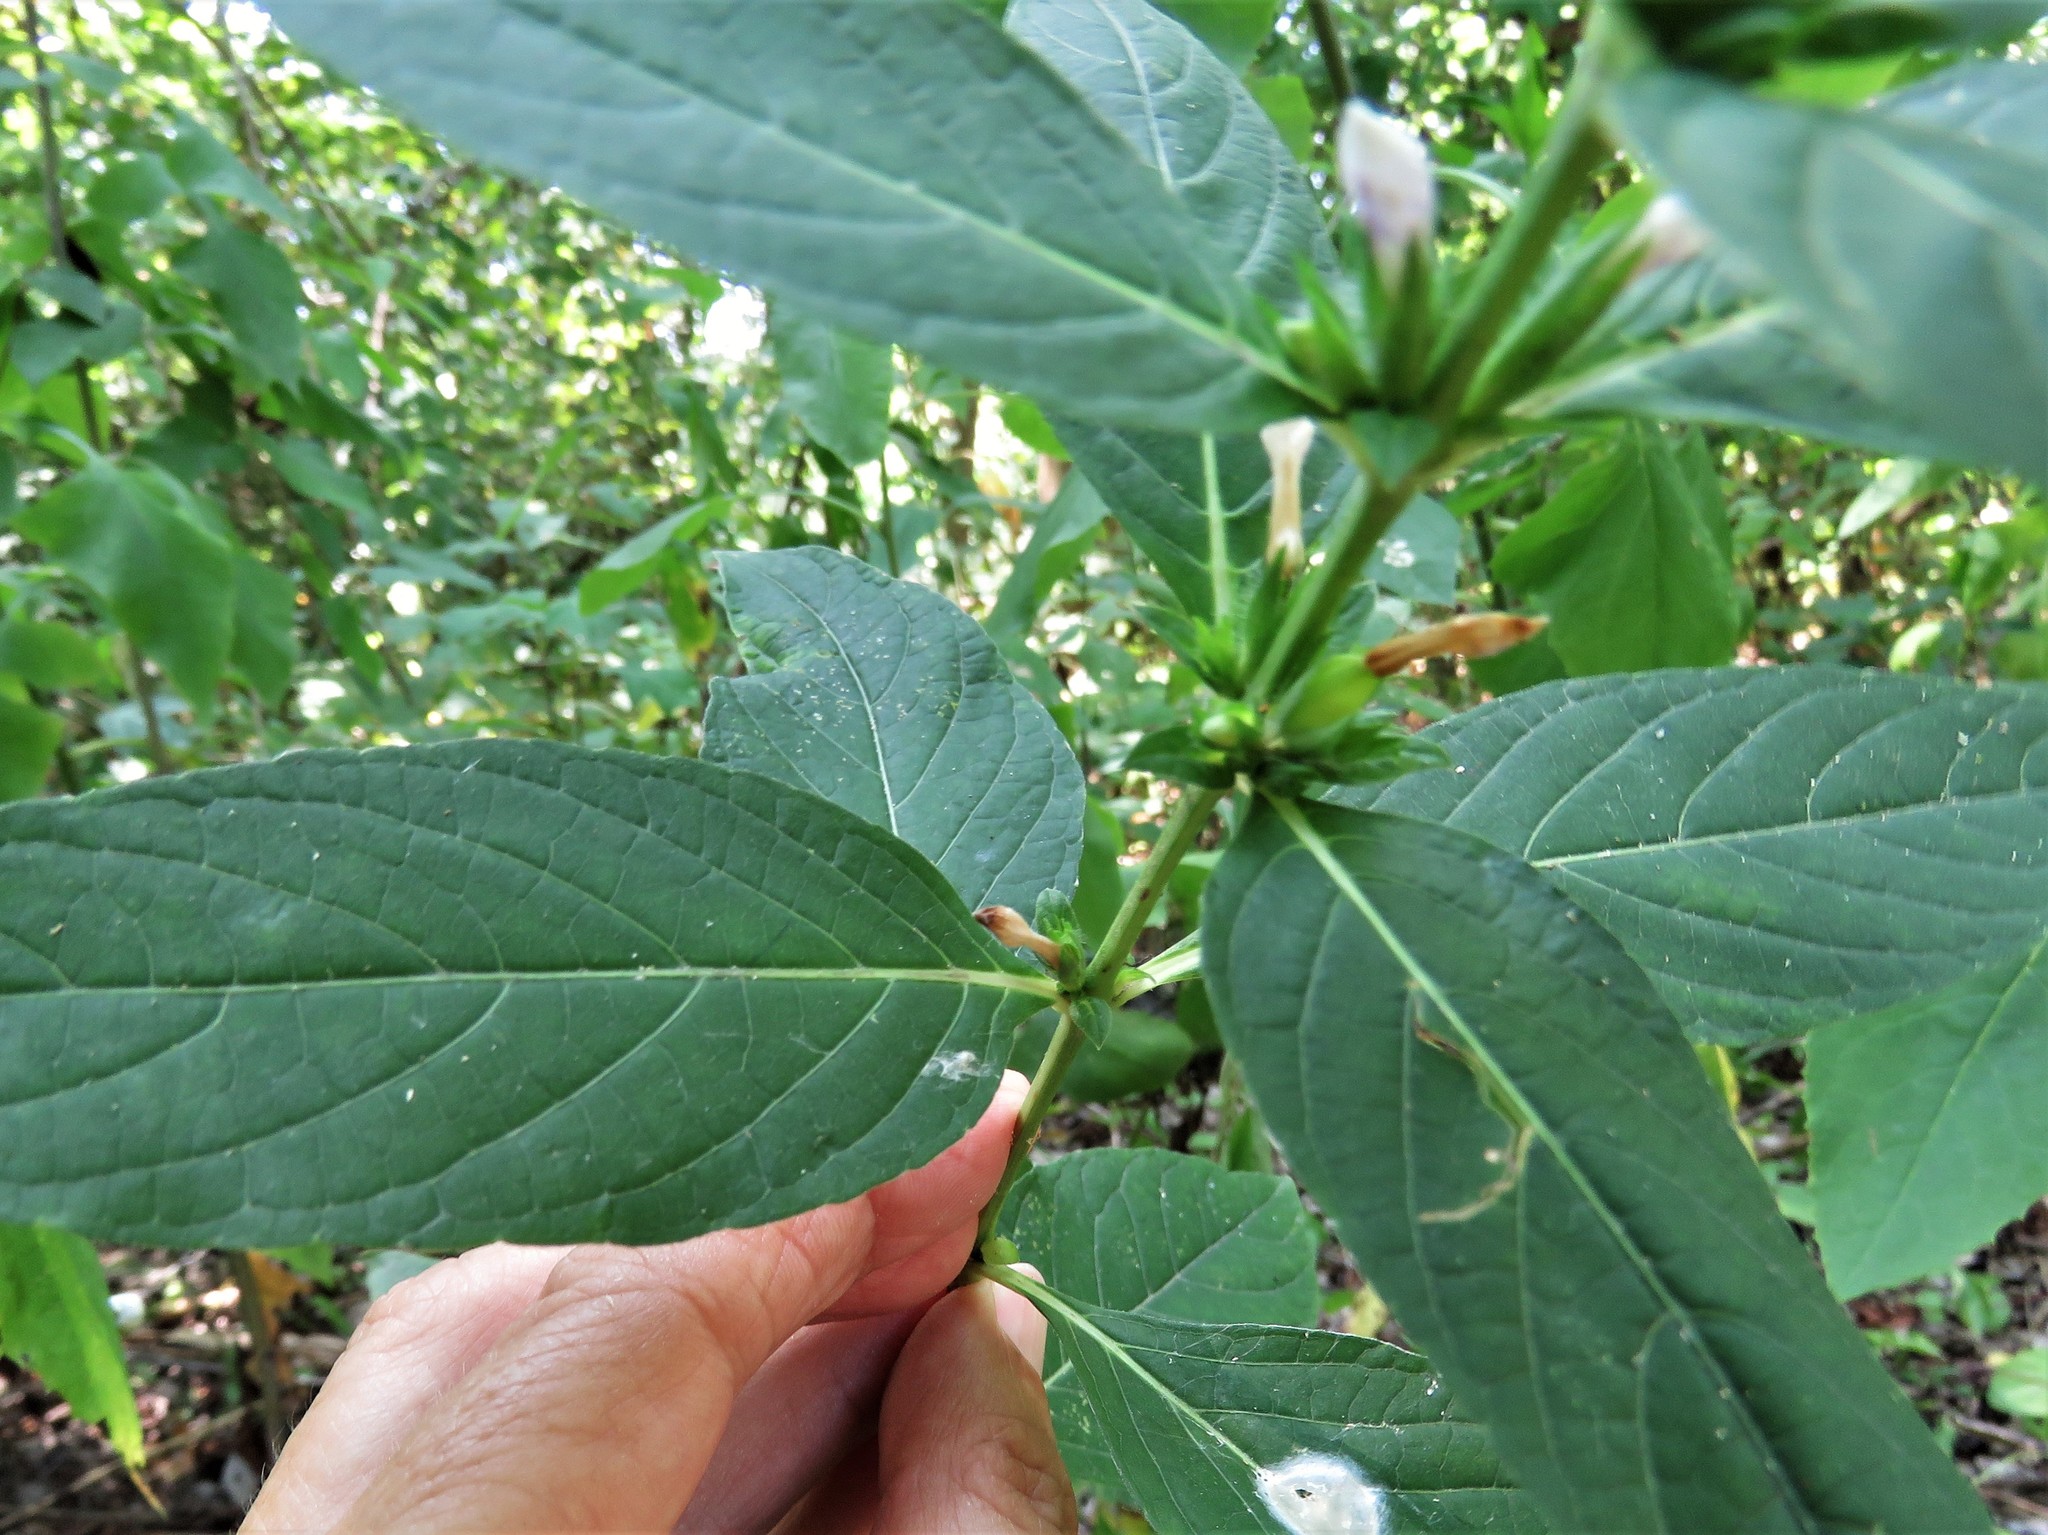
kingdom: Plantae
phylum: Tracheophyta
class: Magnoliopsida
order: Lamiales
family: Acanthaceae
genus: Ruellia
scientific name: Ruellia strepens
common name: Limestone wild petunia
